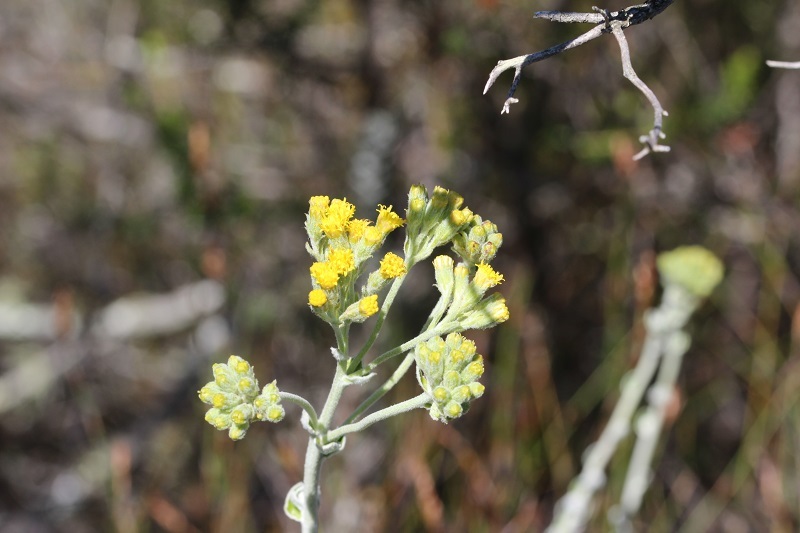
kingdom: Plantae
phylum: Tracheophyta
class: Magnoliopsida
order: Asterales
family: Asteraceae
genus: Senecio
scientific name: Senecio pauciflosculosus
